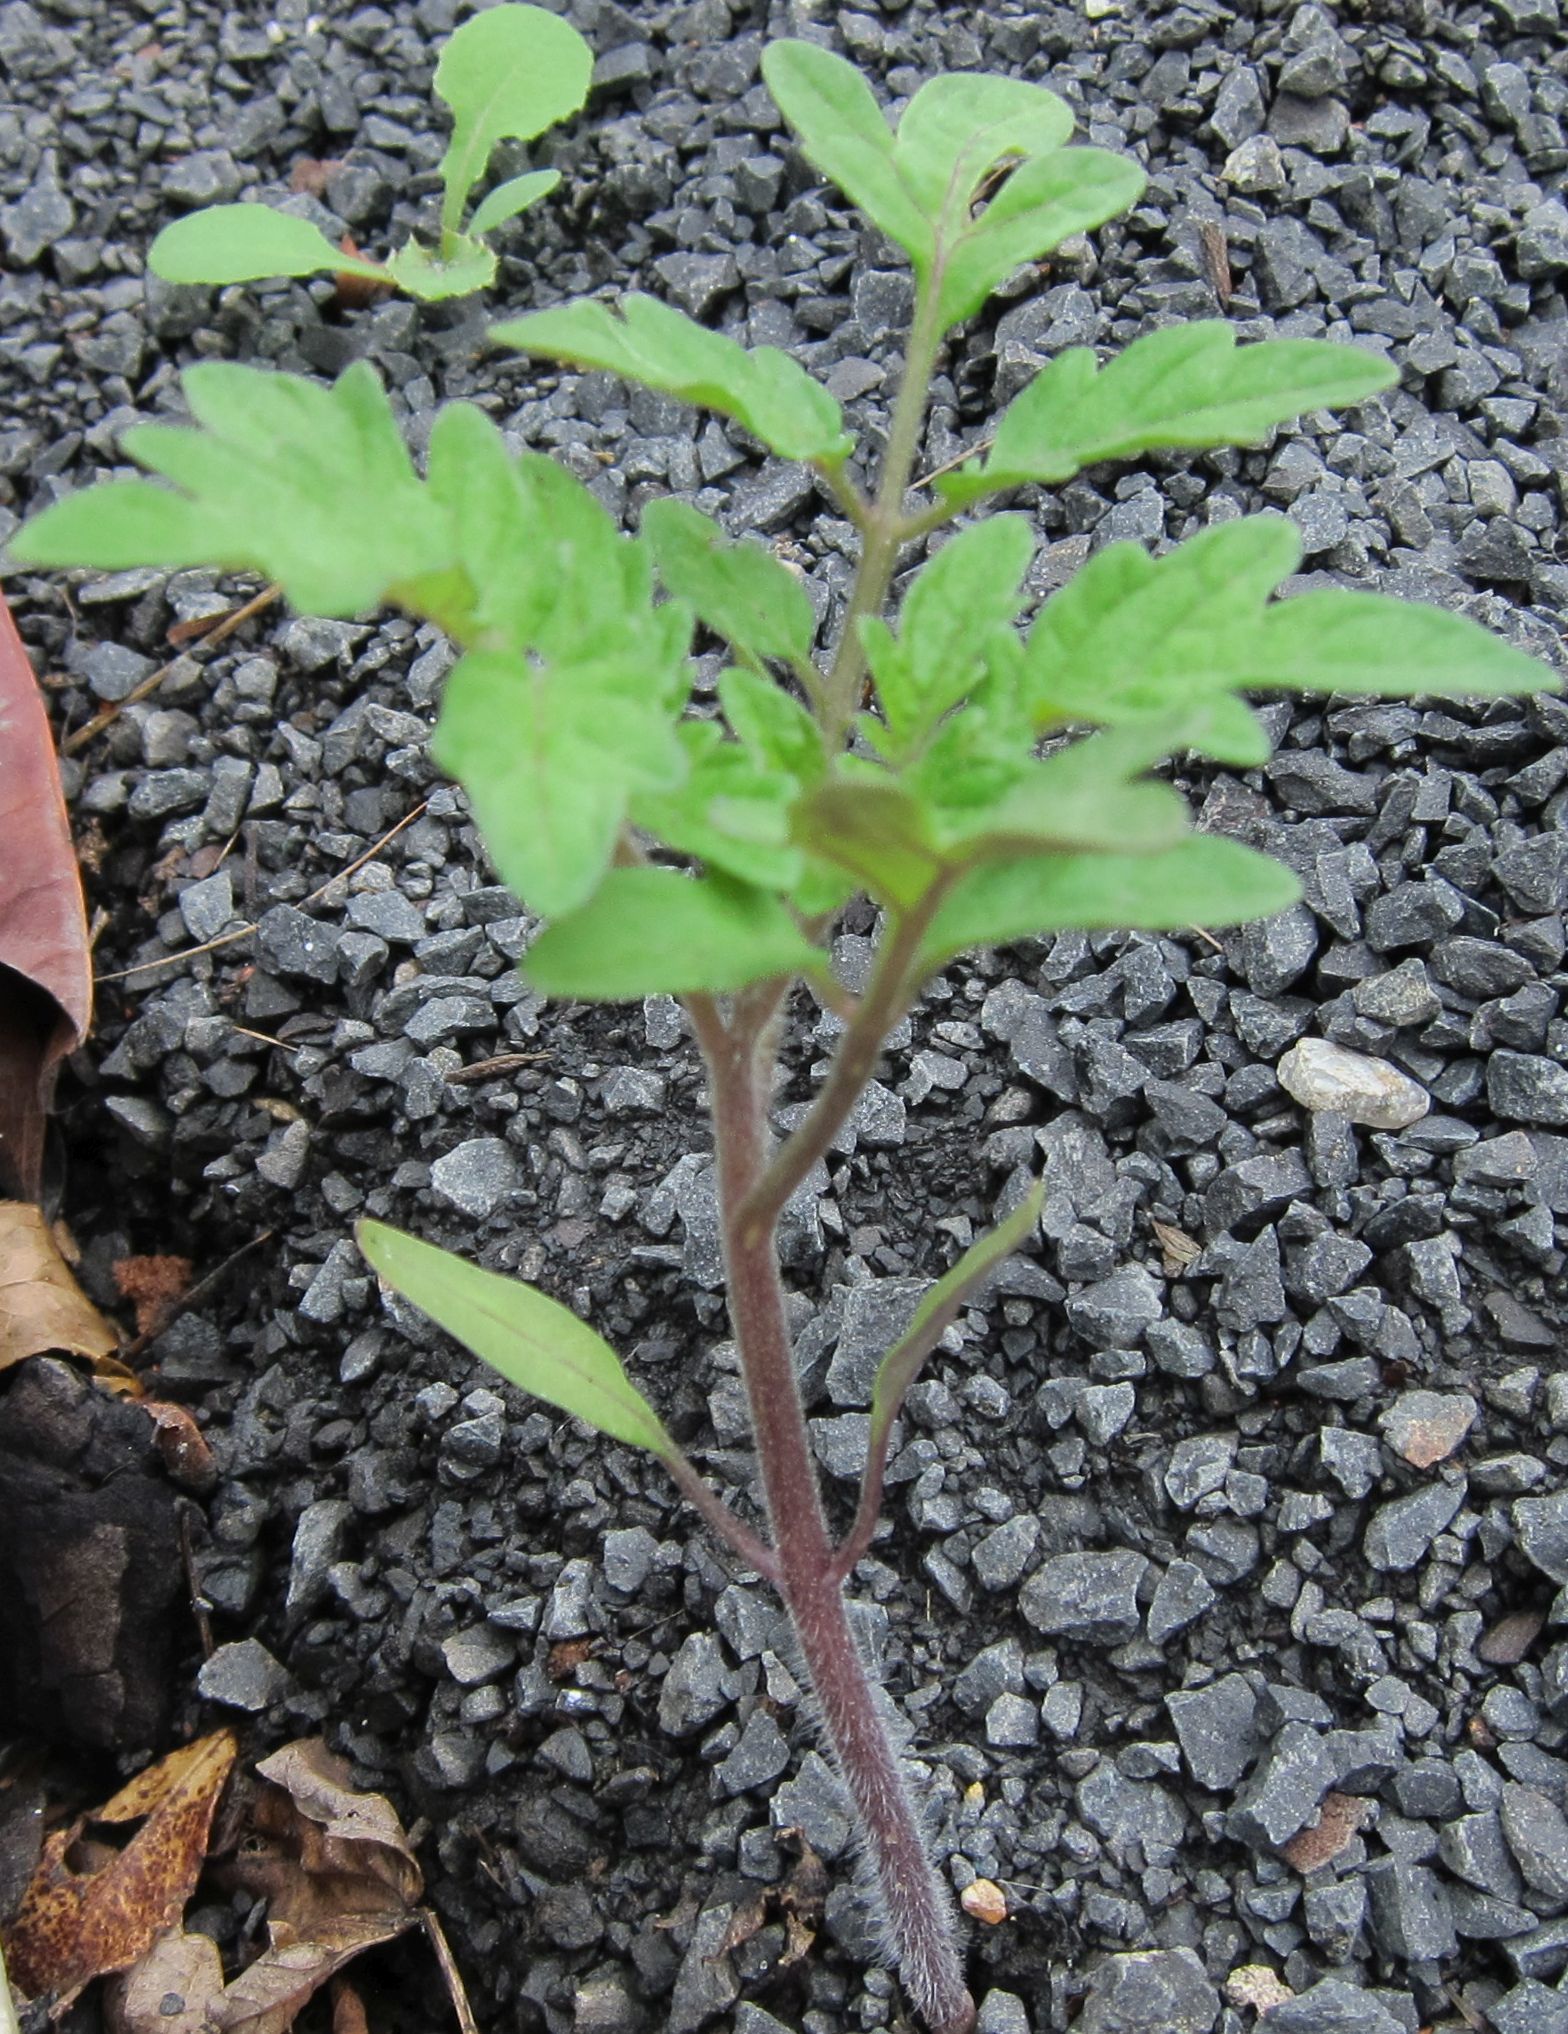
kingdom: Plantae
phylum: Tracheophyta
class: Magnoliopsida
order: Solanales
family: Solanaceae
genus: Solanum
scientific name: Solanum lycopersicum
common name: Garden tomato
